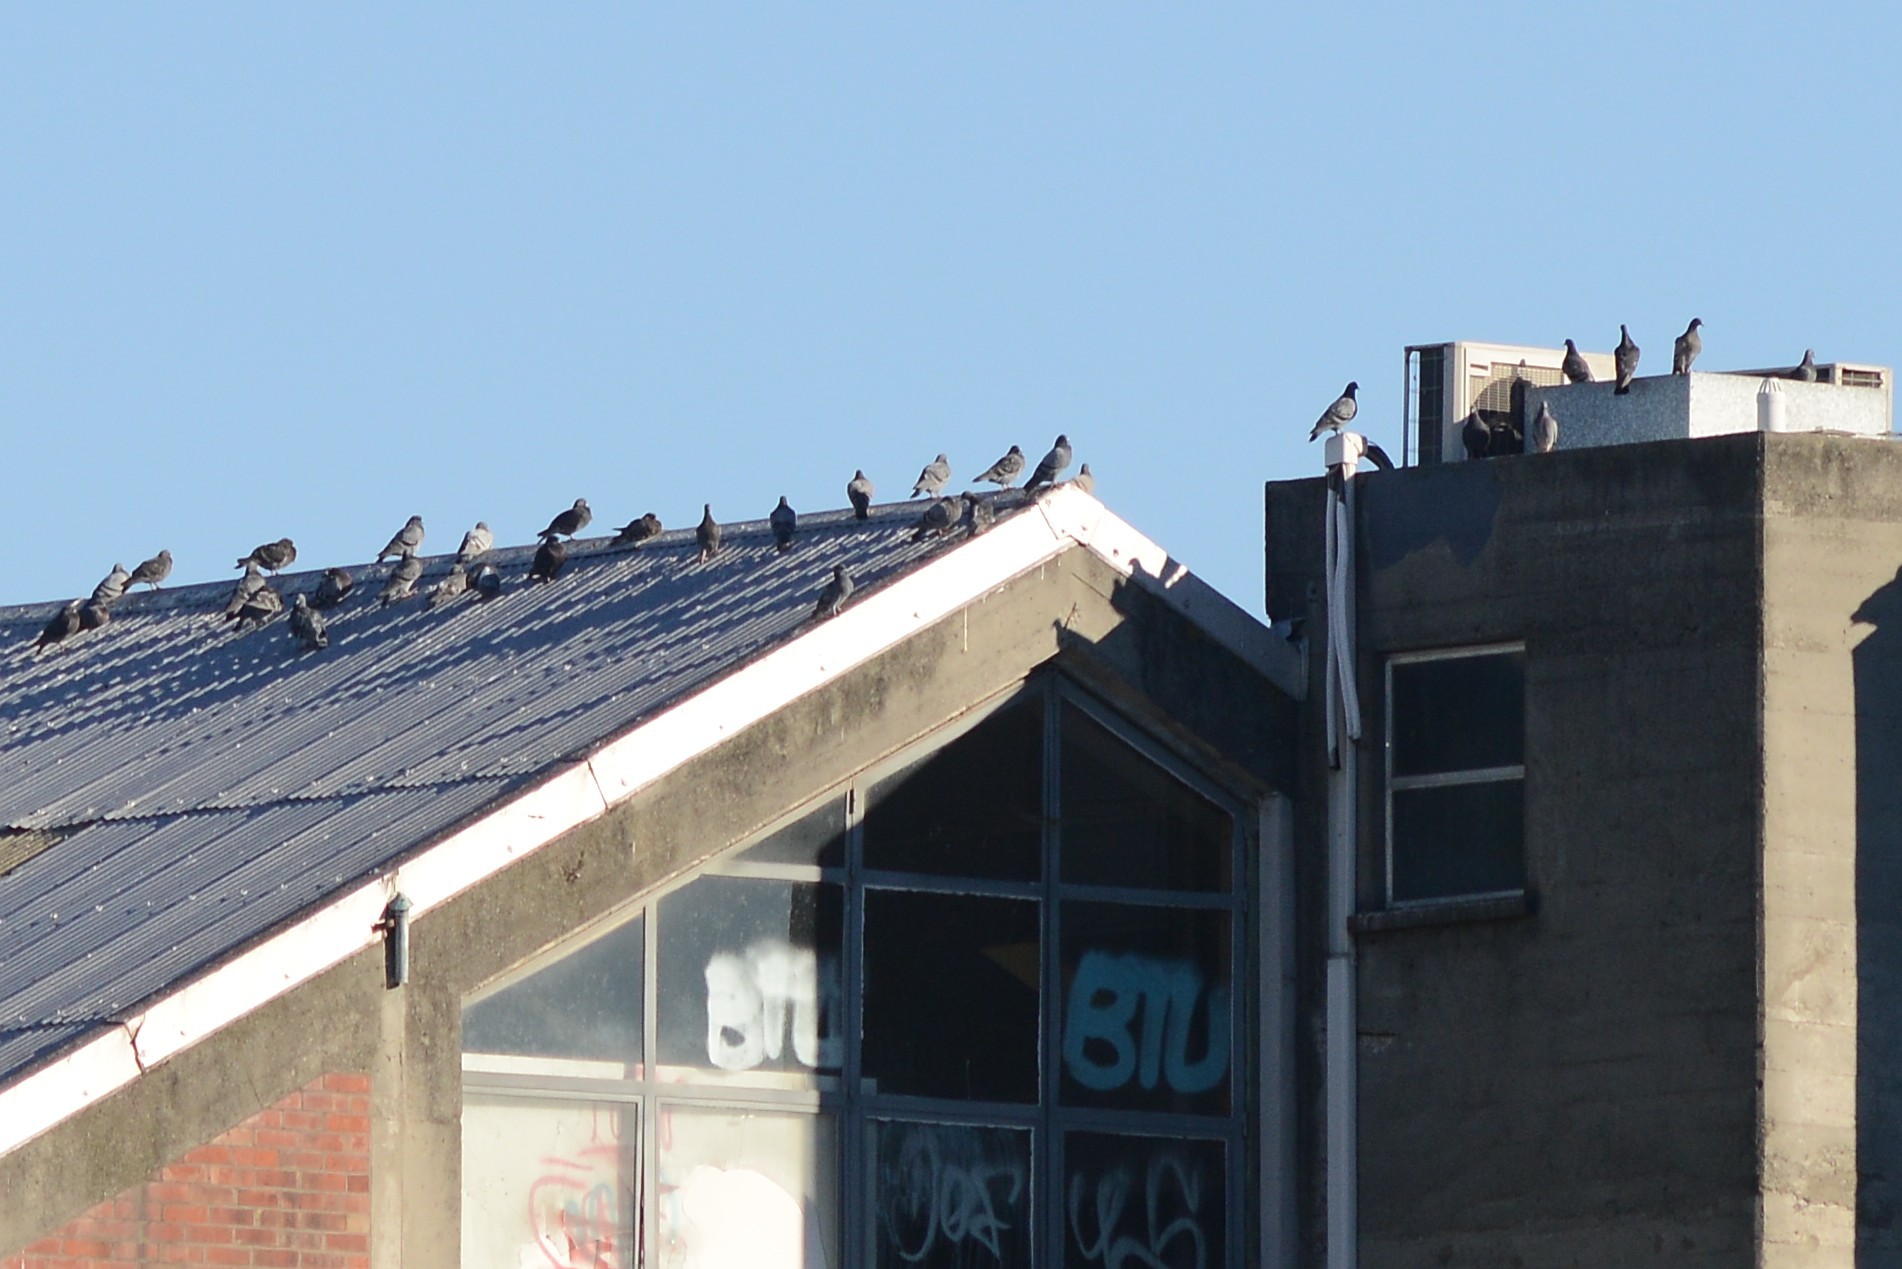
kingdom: Animalia
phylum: Chordata
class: Aves
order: Columbiformes
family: Columbidae
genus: Columba
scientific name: Columba livia
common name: Rock pigeon
